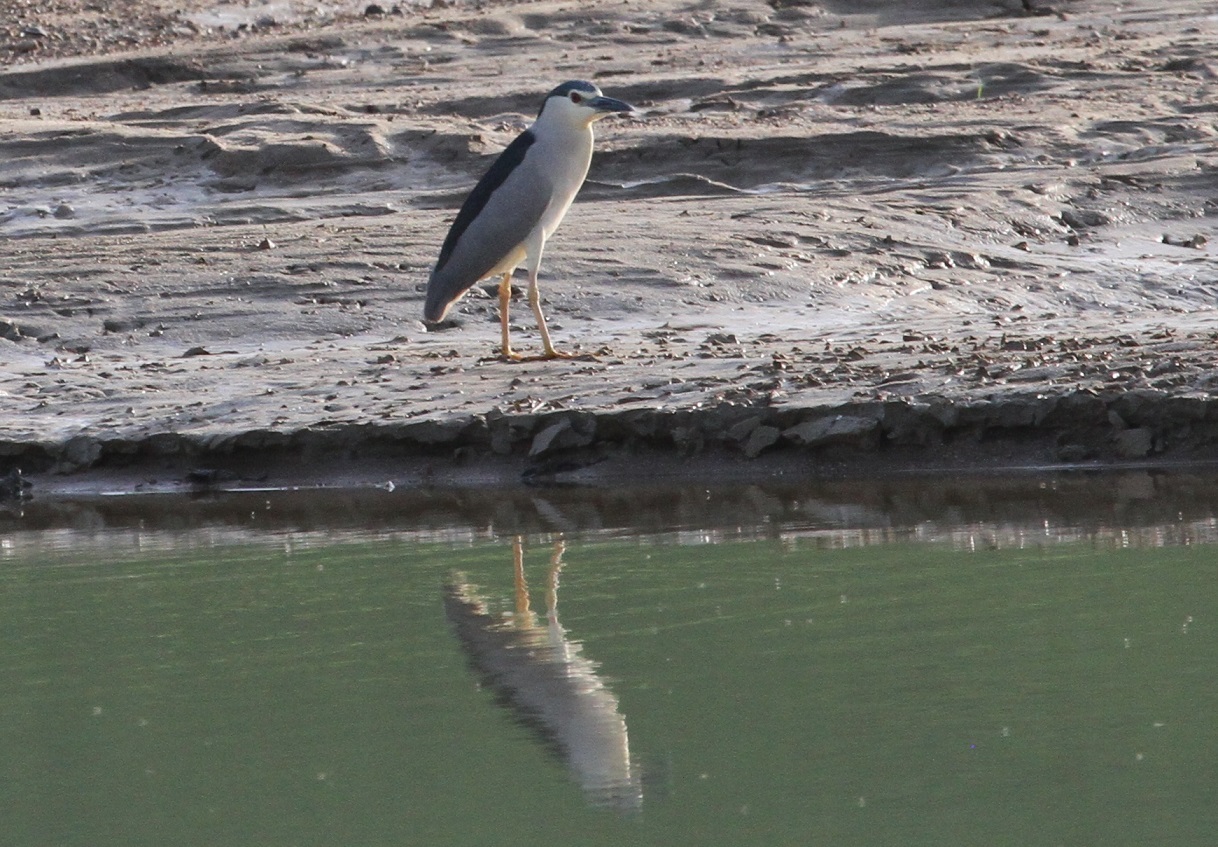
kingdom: Animalia
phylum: Chordata
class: Aves
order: Pelecaniformes
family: Ardeidae
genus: Nycticorax
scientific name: Nycticorax nycticorax
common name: Black-crowned night heron
